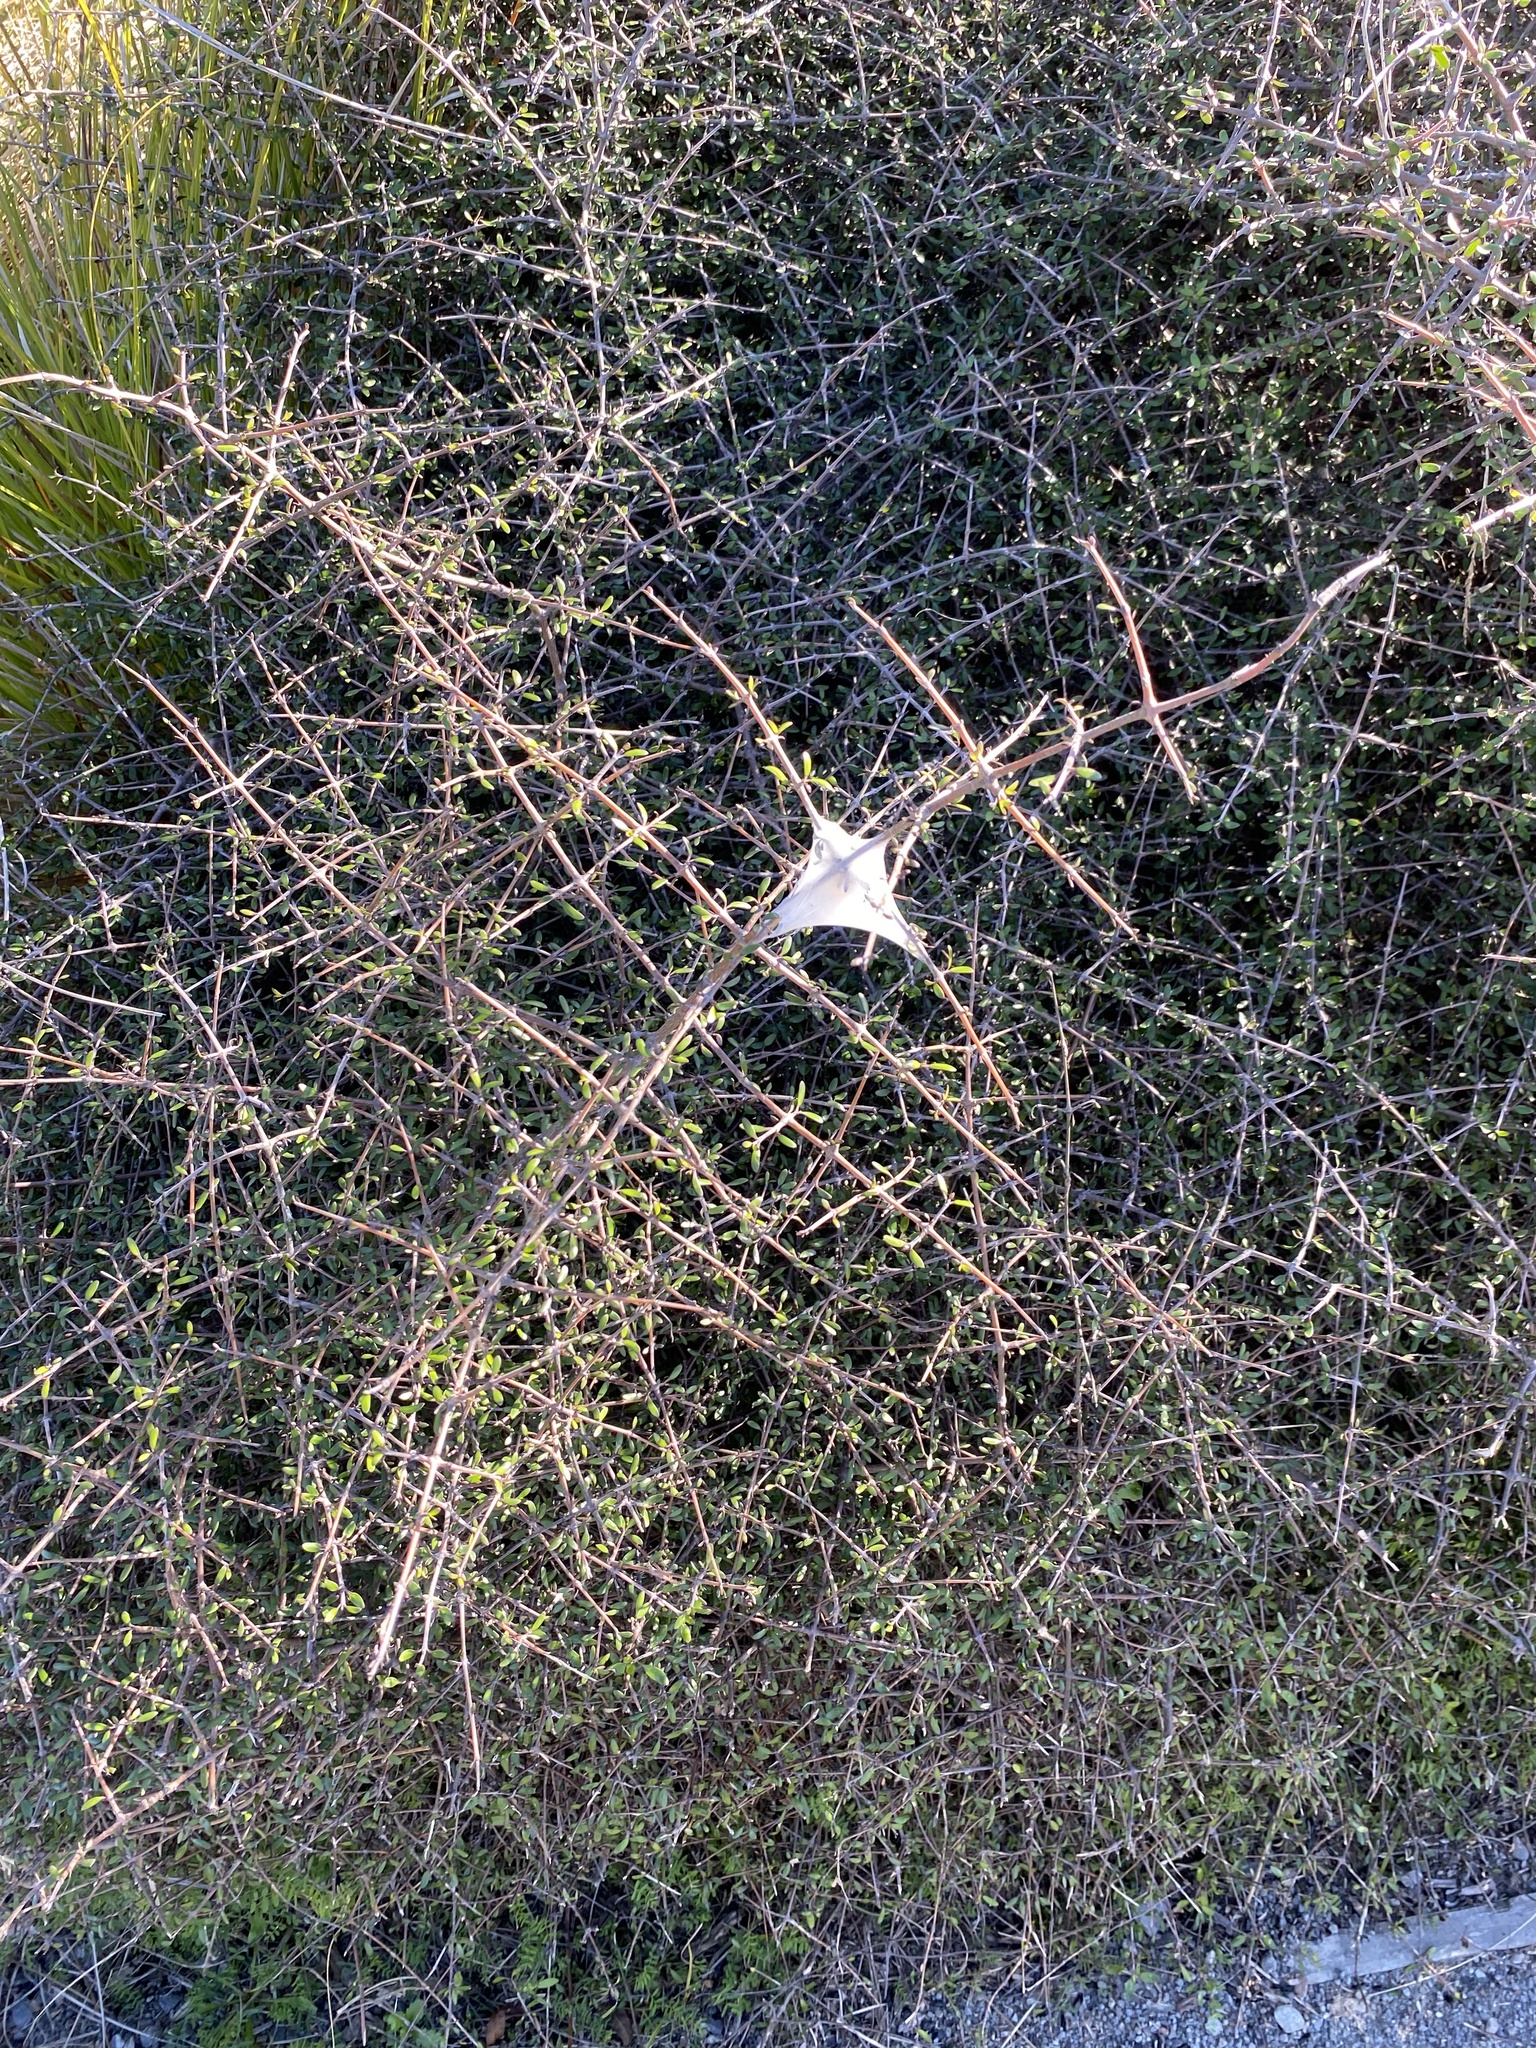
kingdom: Animalia
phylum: Arthropoda
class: Arachnida
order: Araneae
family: Pisauridae
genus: Dolomedes
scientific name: Dolomedes
